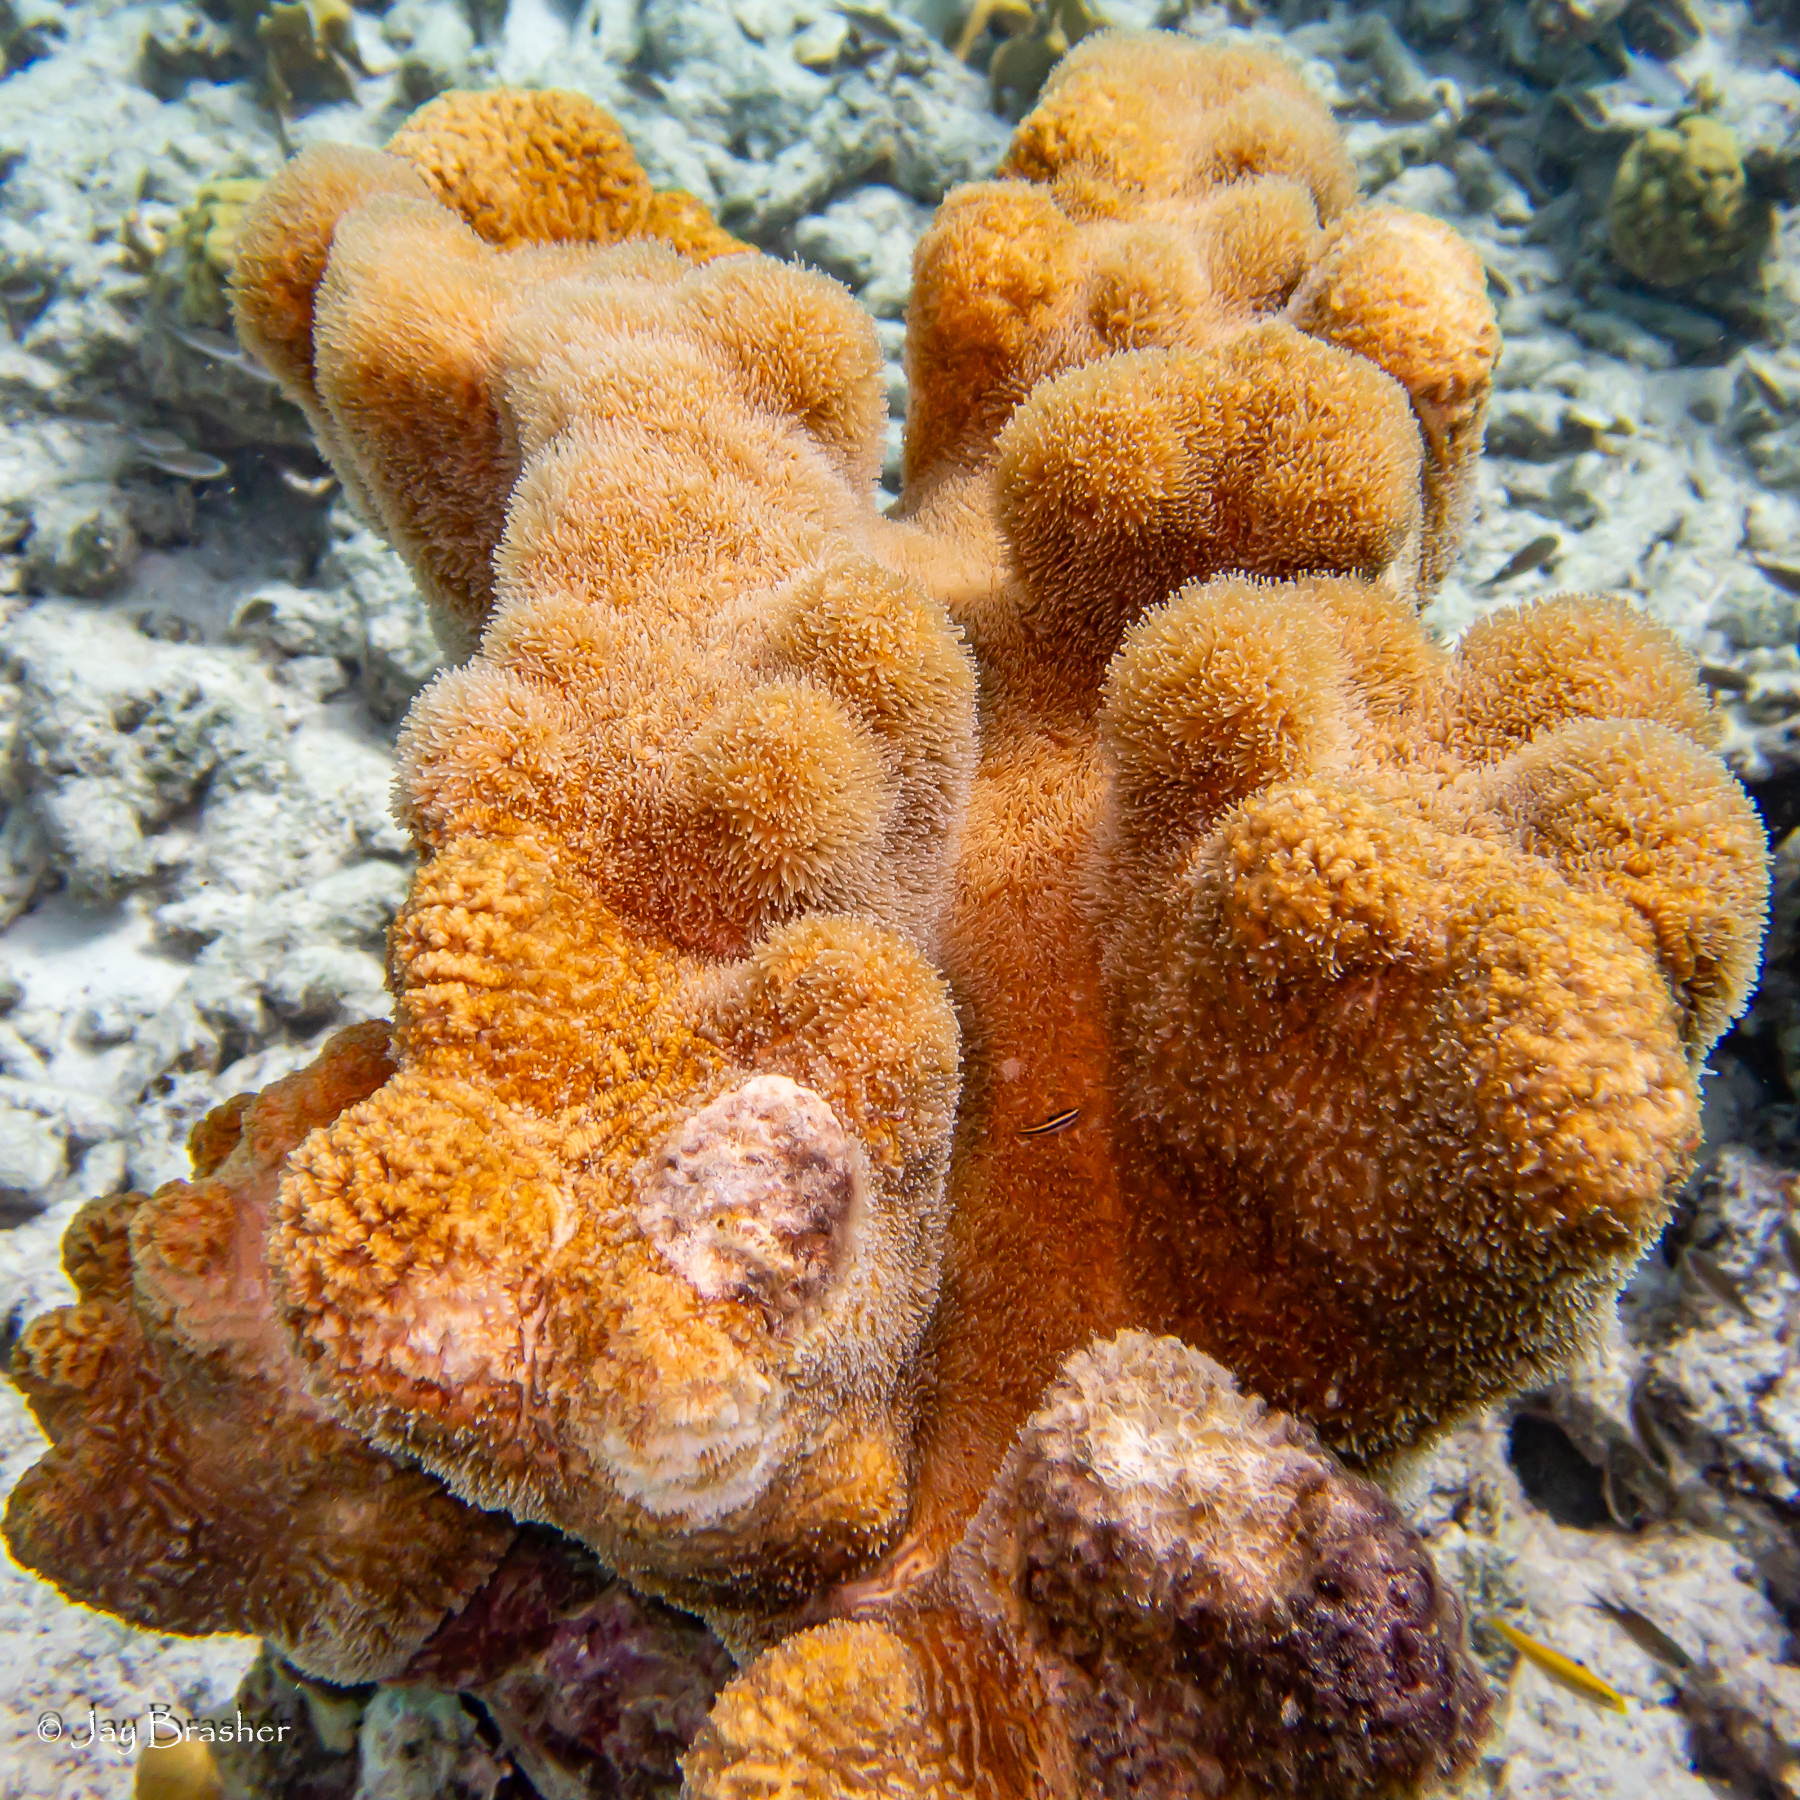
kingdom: Animalia
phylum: Cnidaria
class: Anthozoa
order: Scleractinia
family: Meandrinidae
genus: Dendrogyra
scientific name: Dendrogyra cylindrus
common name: Pillar coral
